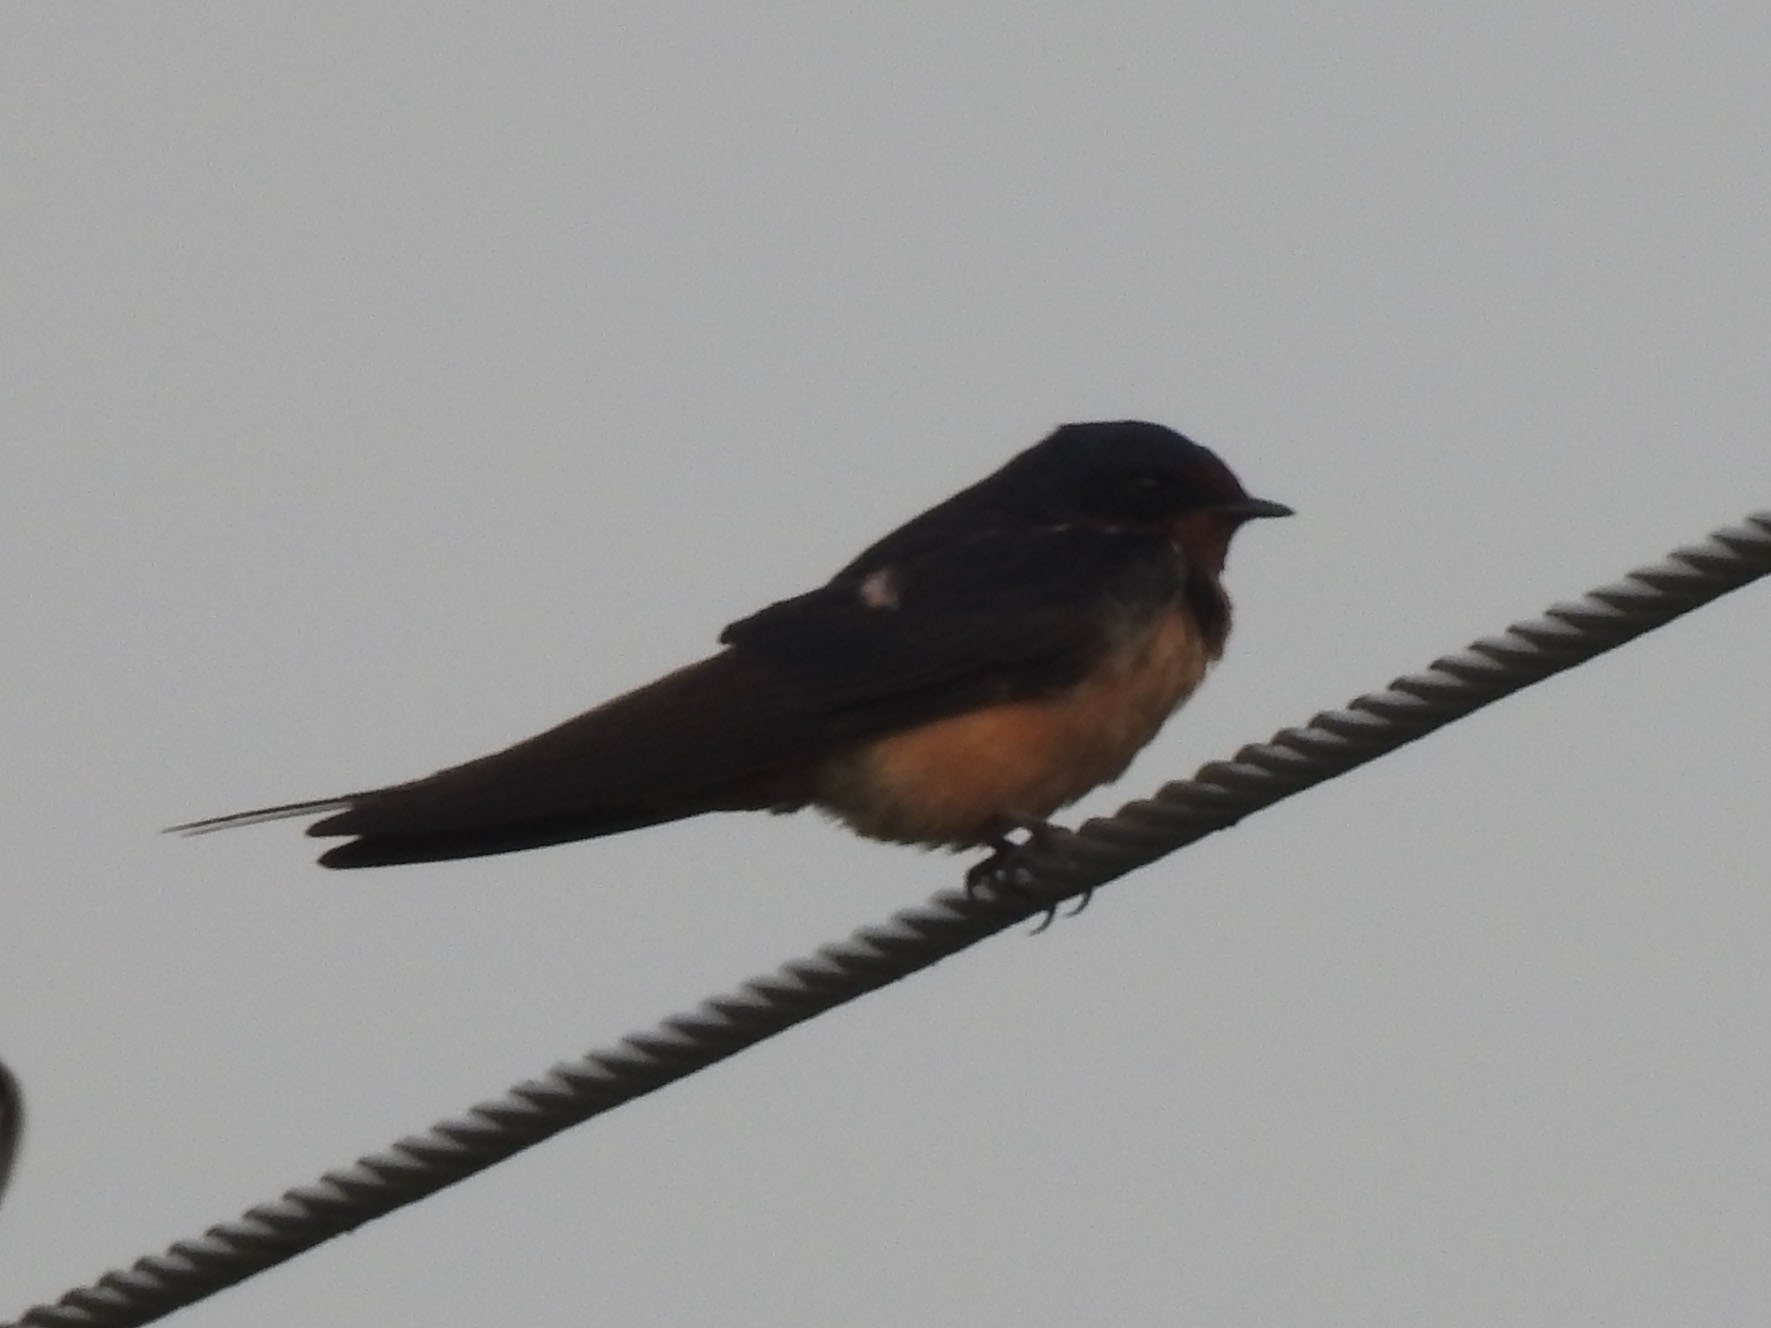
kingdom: Animalia
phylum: Chordata
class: Aves
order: Passeriformes
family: Hirundinidae
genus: Hirundo
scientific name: Hirundo rustica
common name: Barn swallow
